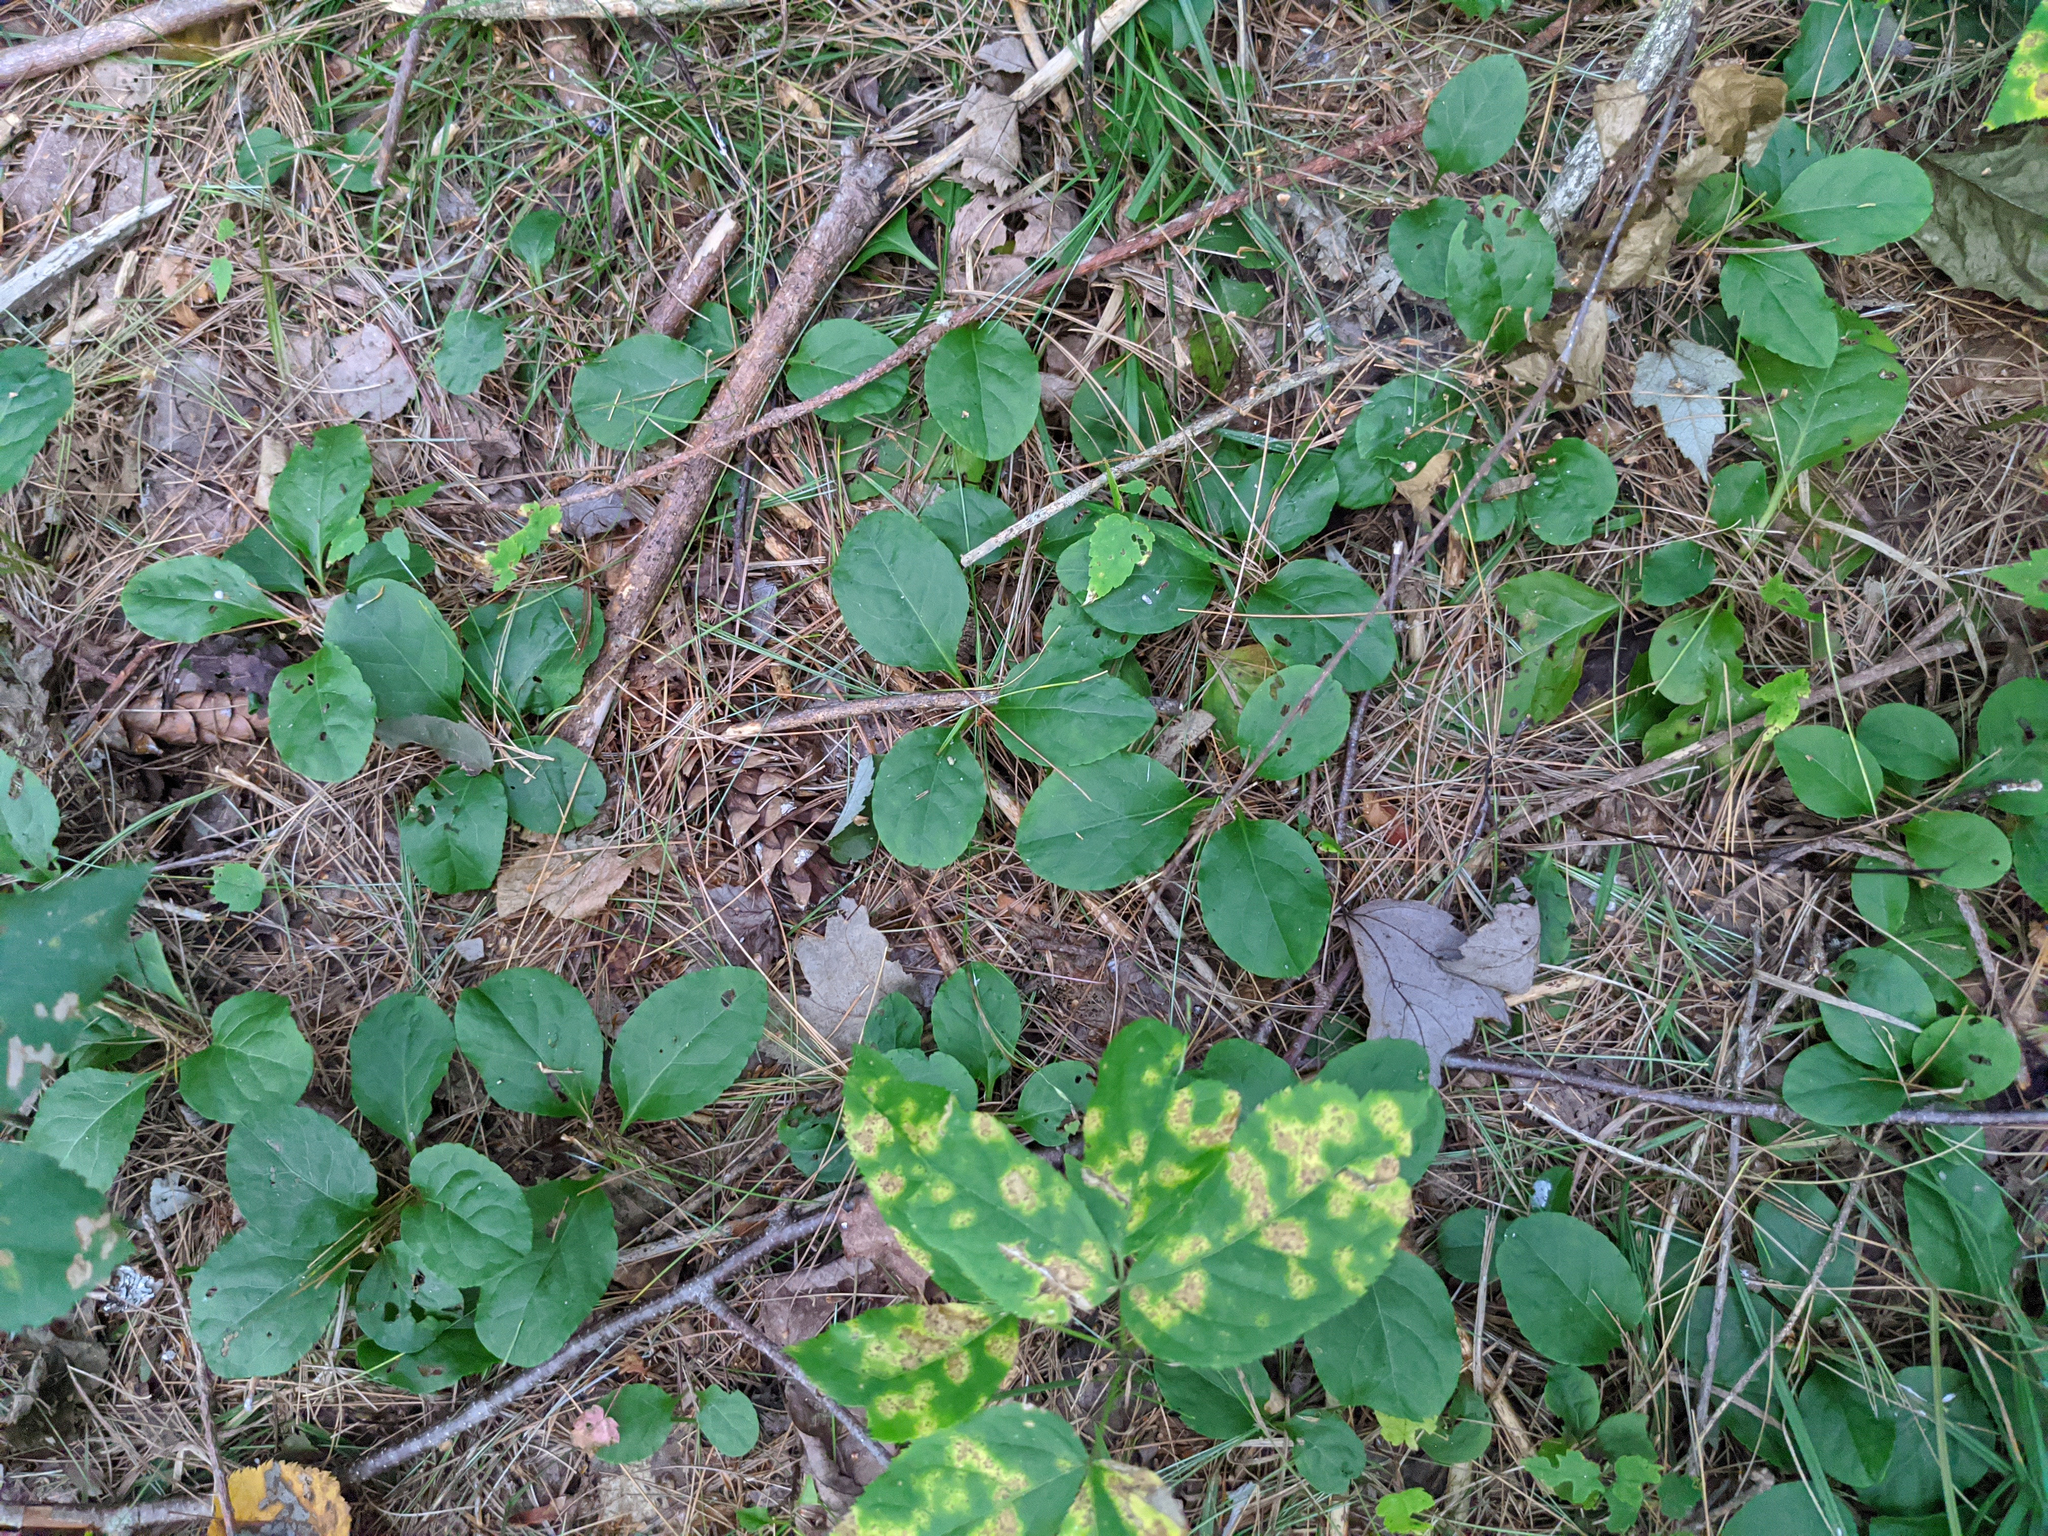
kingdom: Plantae
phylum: Tracheophyta
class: Magnoliopsida
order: Ericales
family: Ericaceae
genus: Pyrola
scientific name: Pyrola elliptica
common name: Shinleaf
